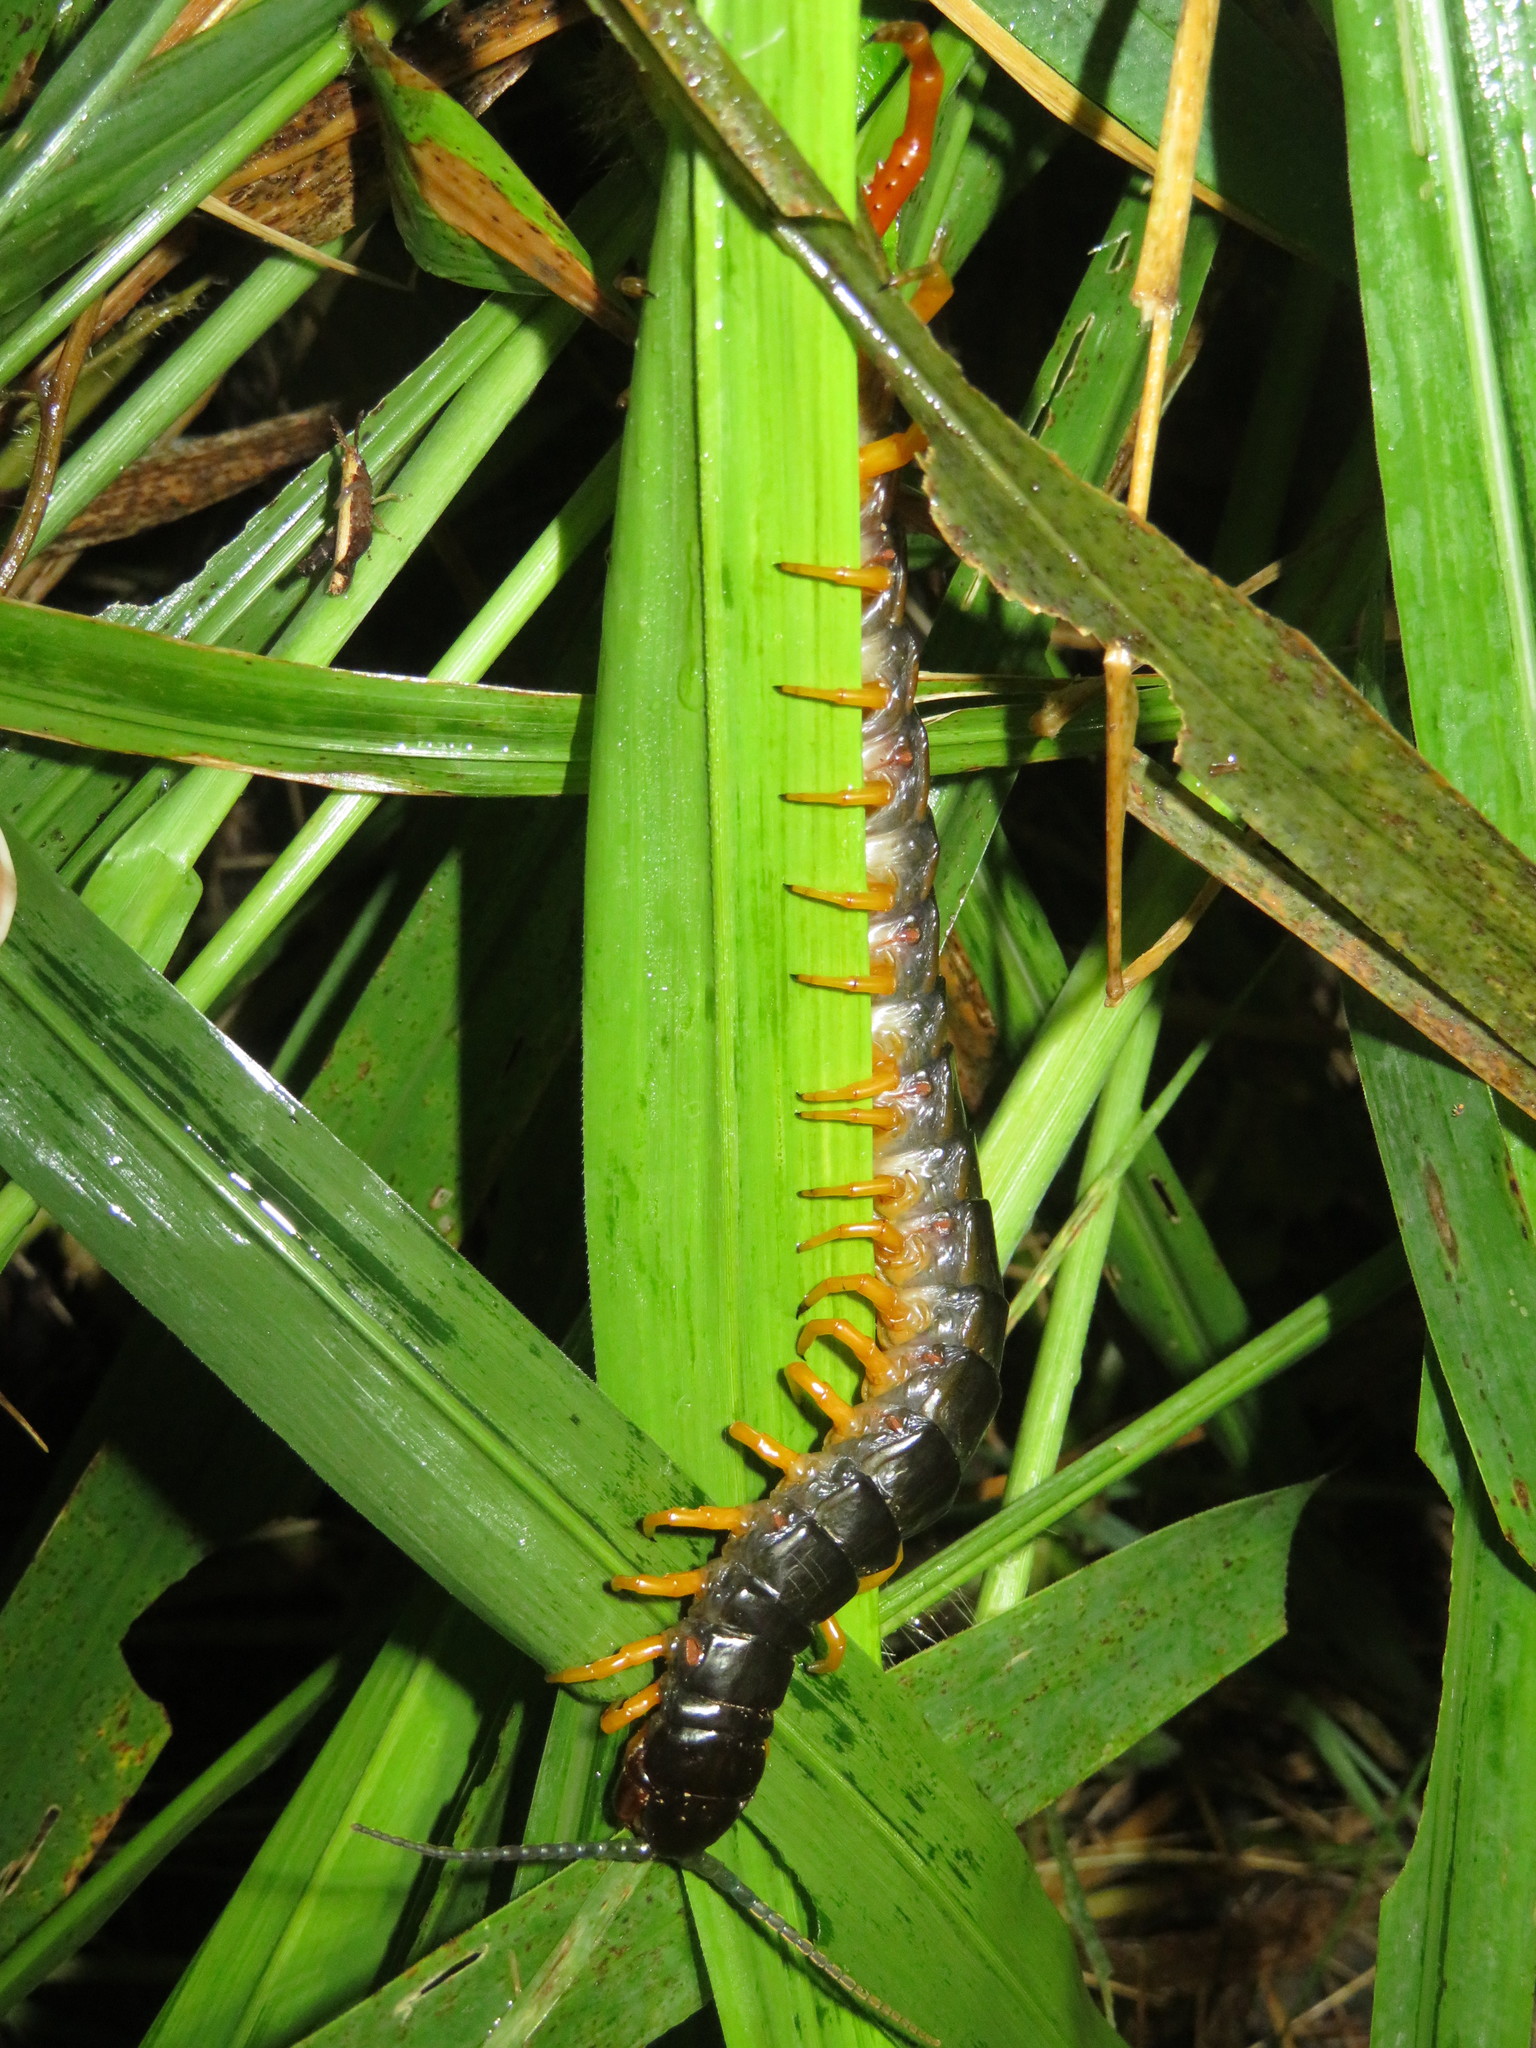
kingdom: Animalia
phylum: Arthropoda
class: Chilopoda
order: Scolopendromorpha
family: Scolopendridae
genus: Ethmostigmus
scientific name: Ethmostigmus trigonopodus
